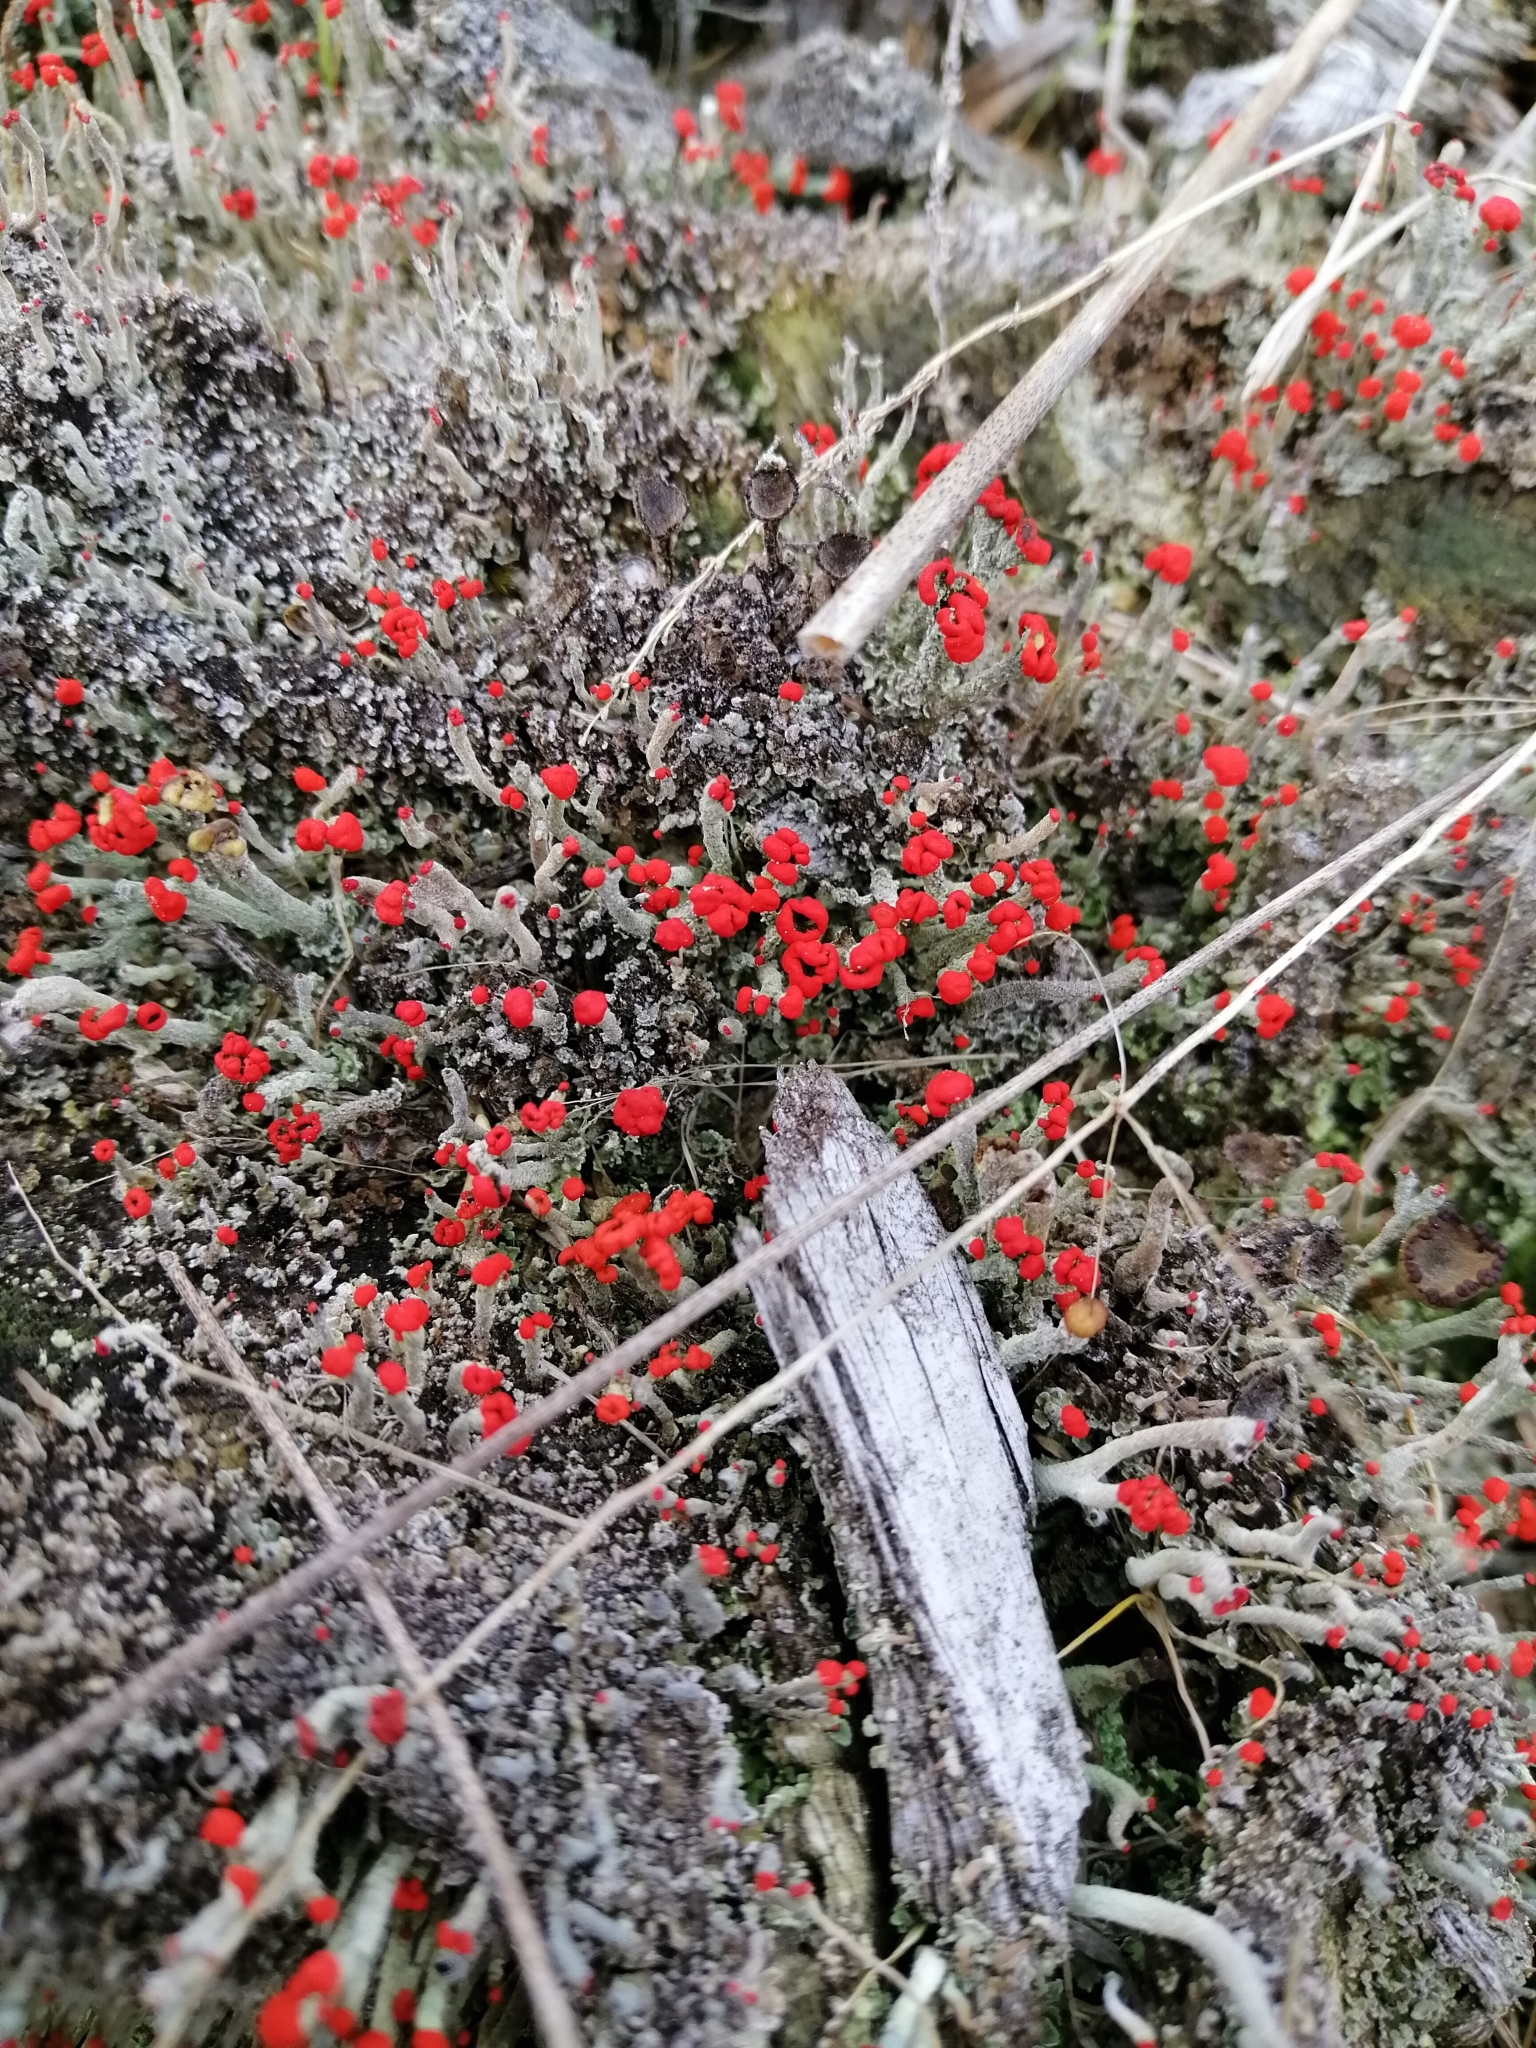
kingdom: Fungi
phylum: Ascomycota
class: Lecanoromycetes
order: Lecanorales
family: Cladoniaceae
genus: Cladonia
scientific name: Cladonia cristatella
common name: British soldier lichen
